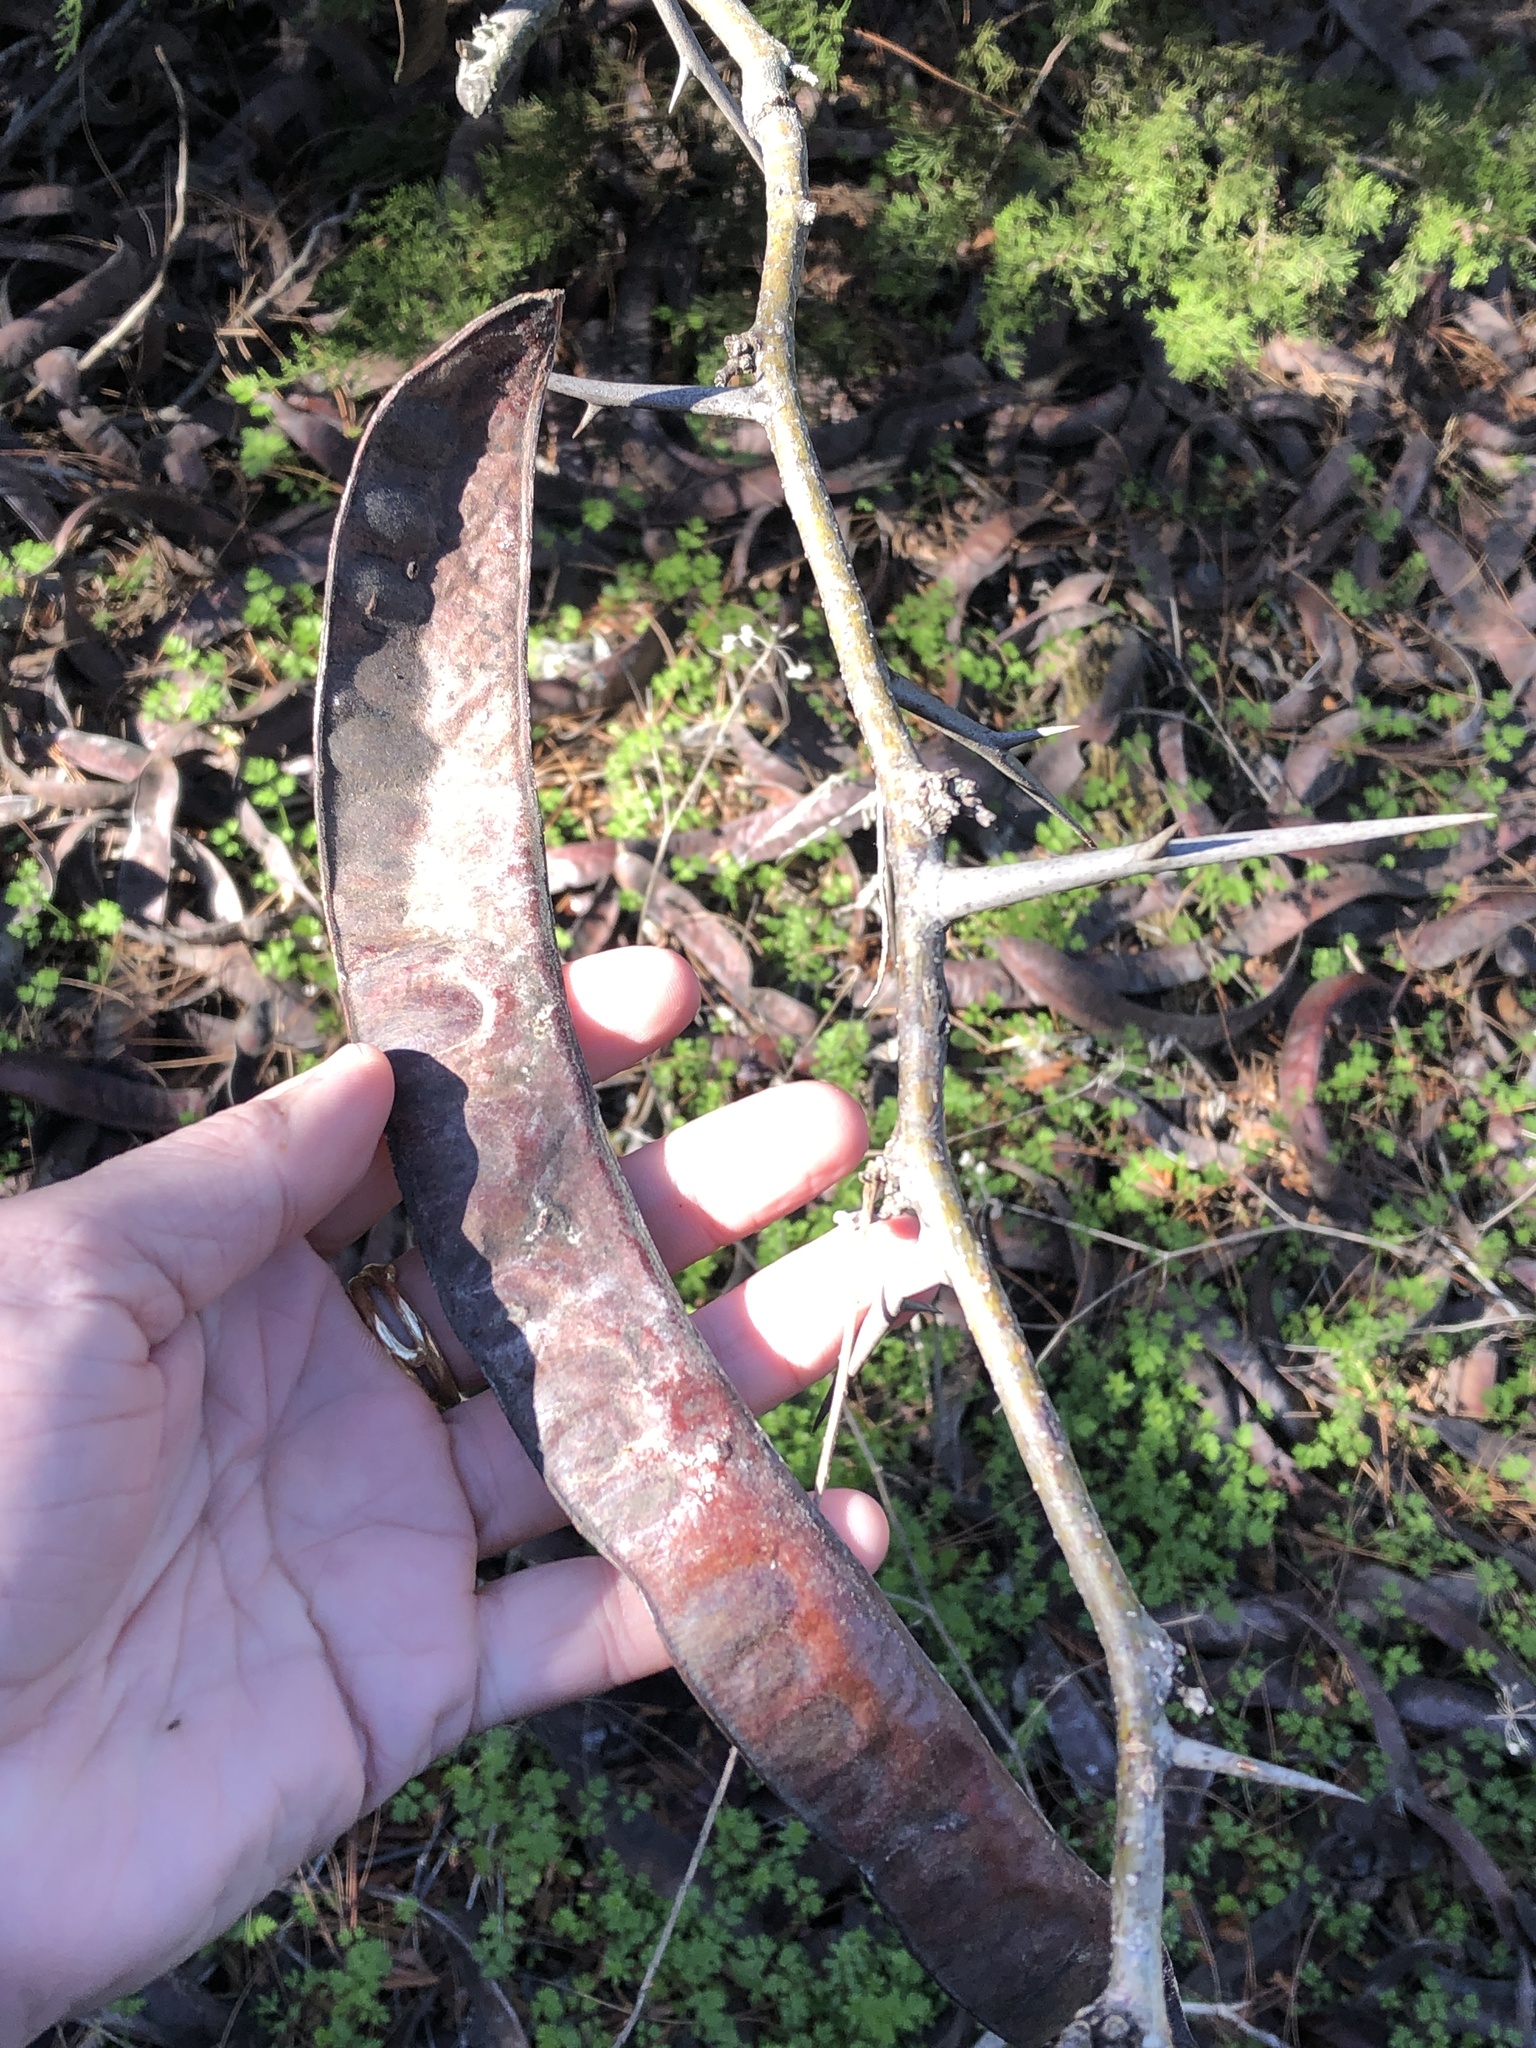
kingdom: Plantae
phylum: Tracheophyta
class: Magnoliopsida
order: Fabales
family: Fabaceae
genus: Gleditsia
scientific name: Gleditsia triacanthos
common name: Common honeylocust
